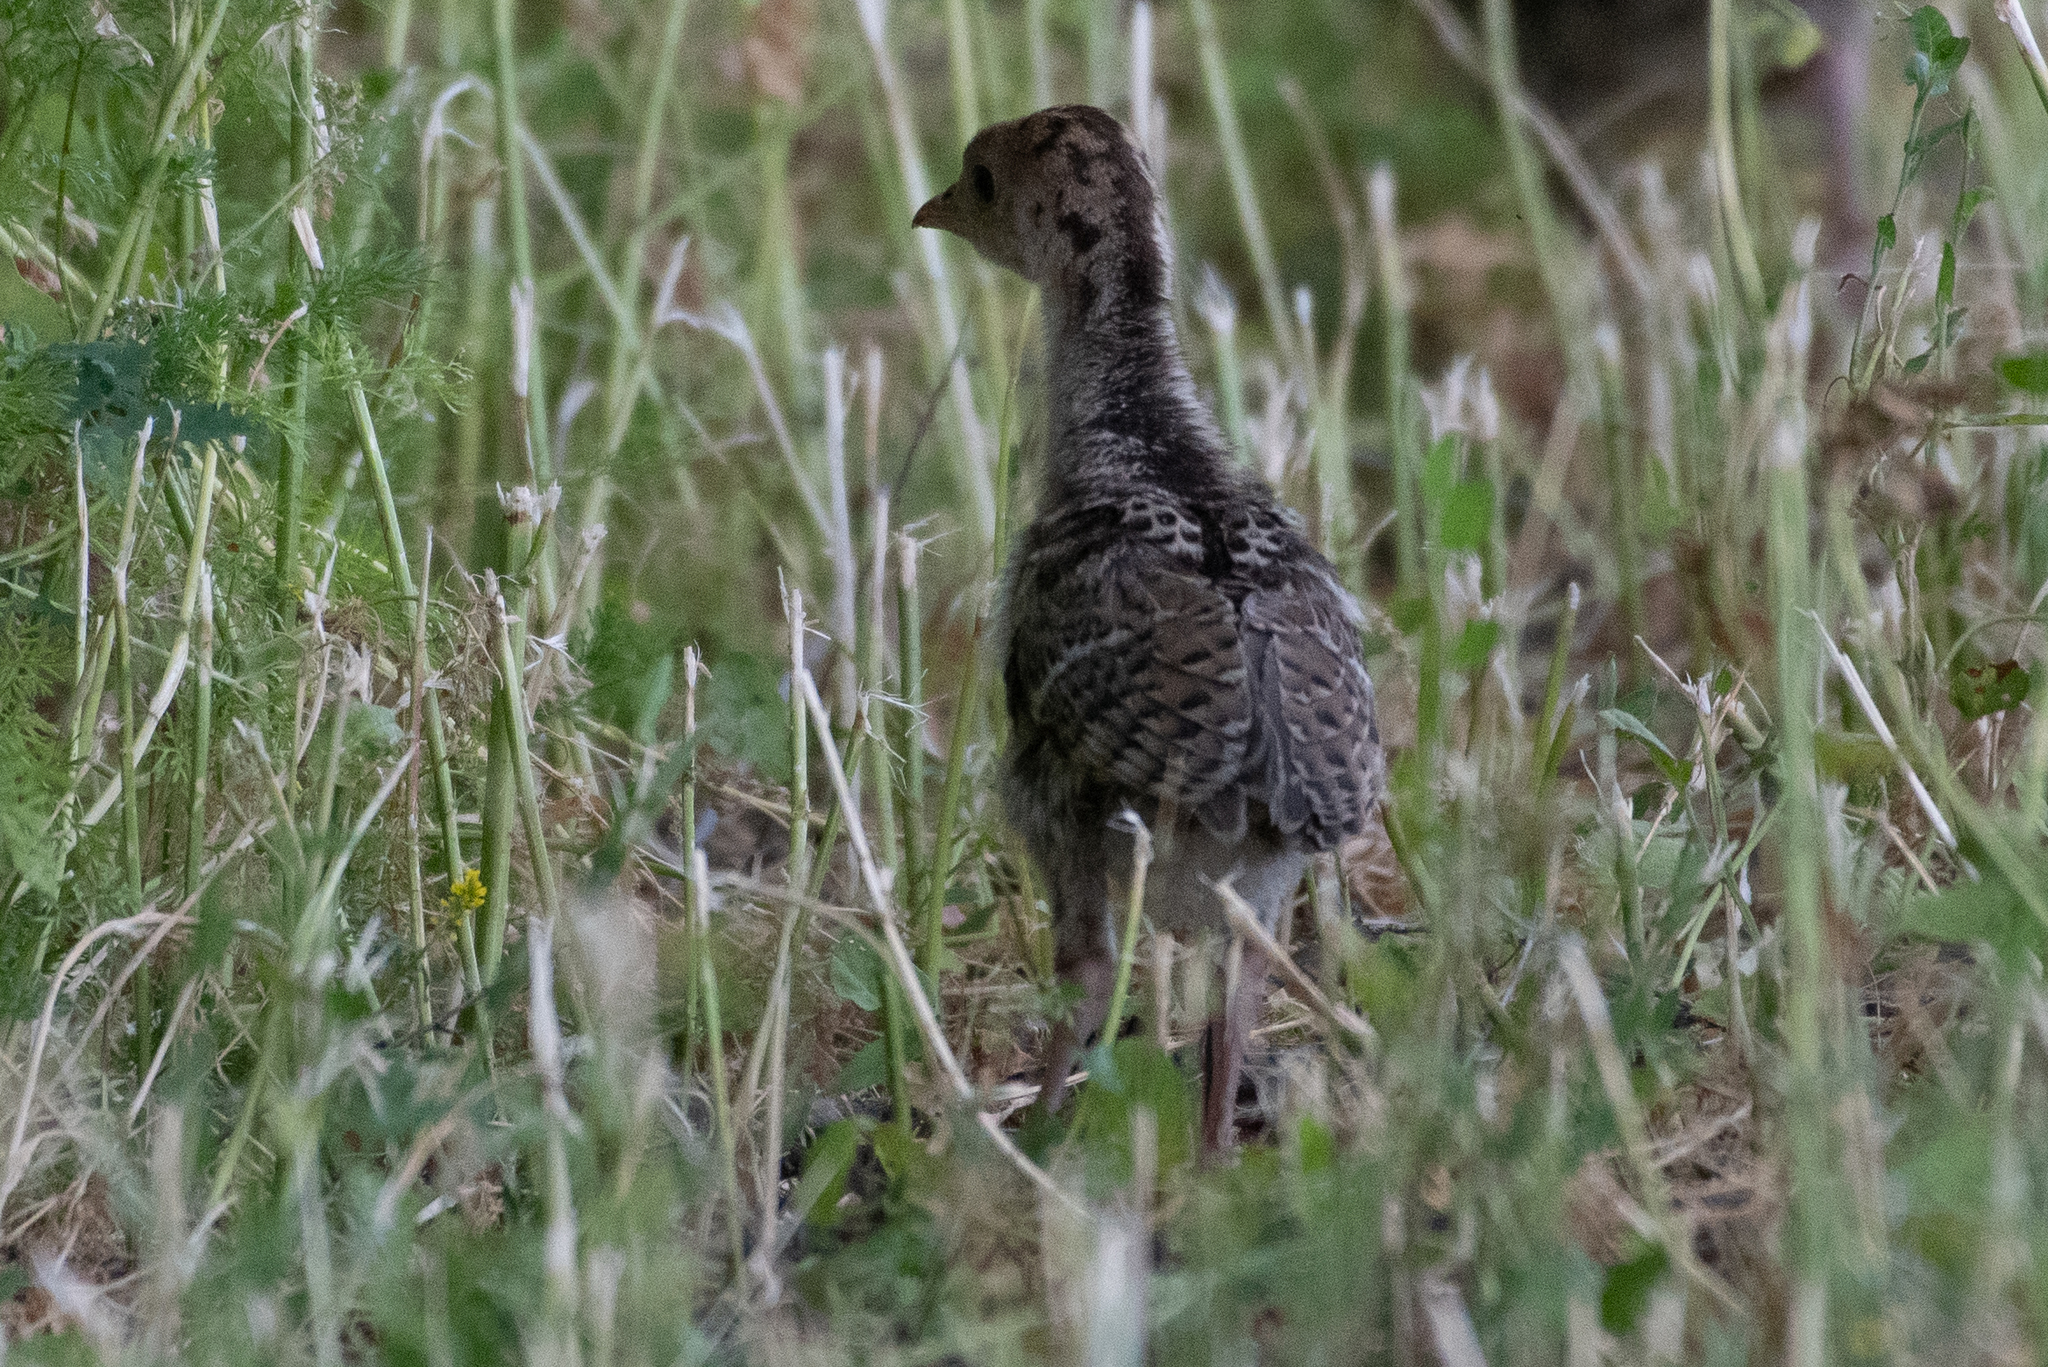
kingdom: Animalia
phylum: Chordata
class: Aves
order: Galliformes
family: Phasianidae
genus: Meleagris
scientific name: Meleagris gallopavo
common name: Wild turkey
